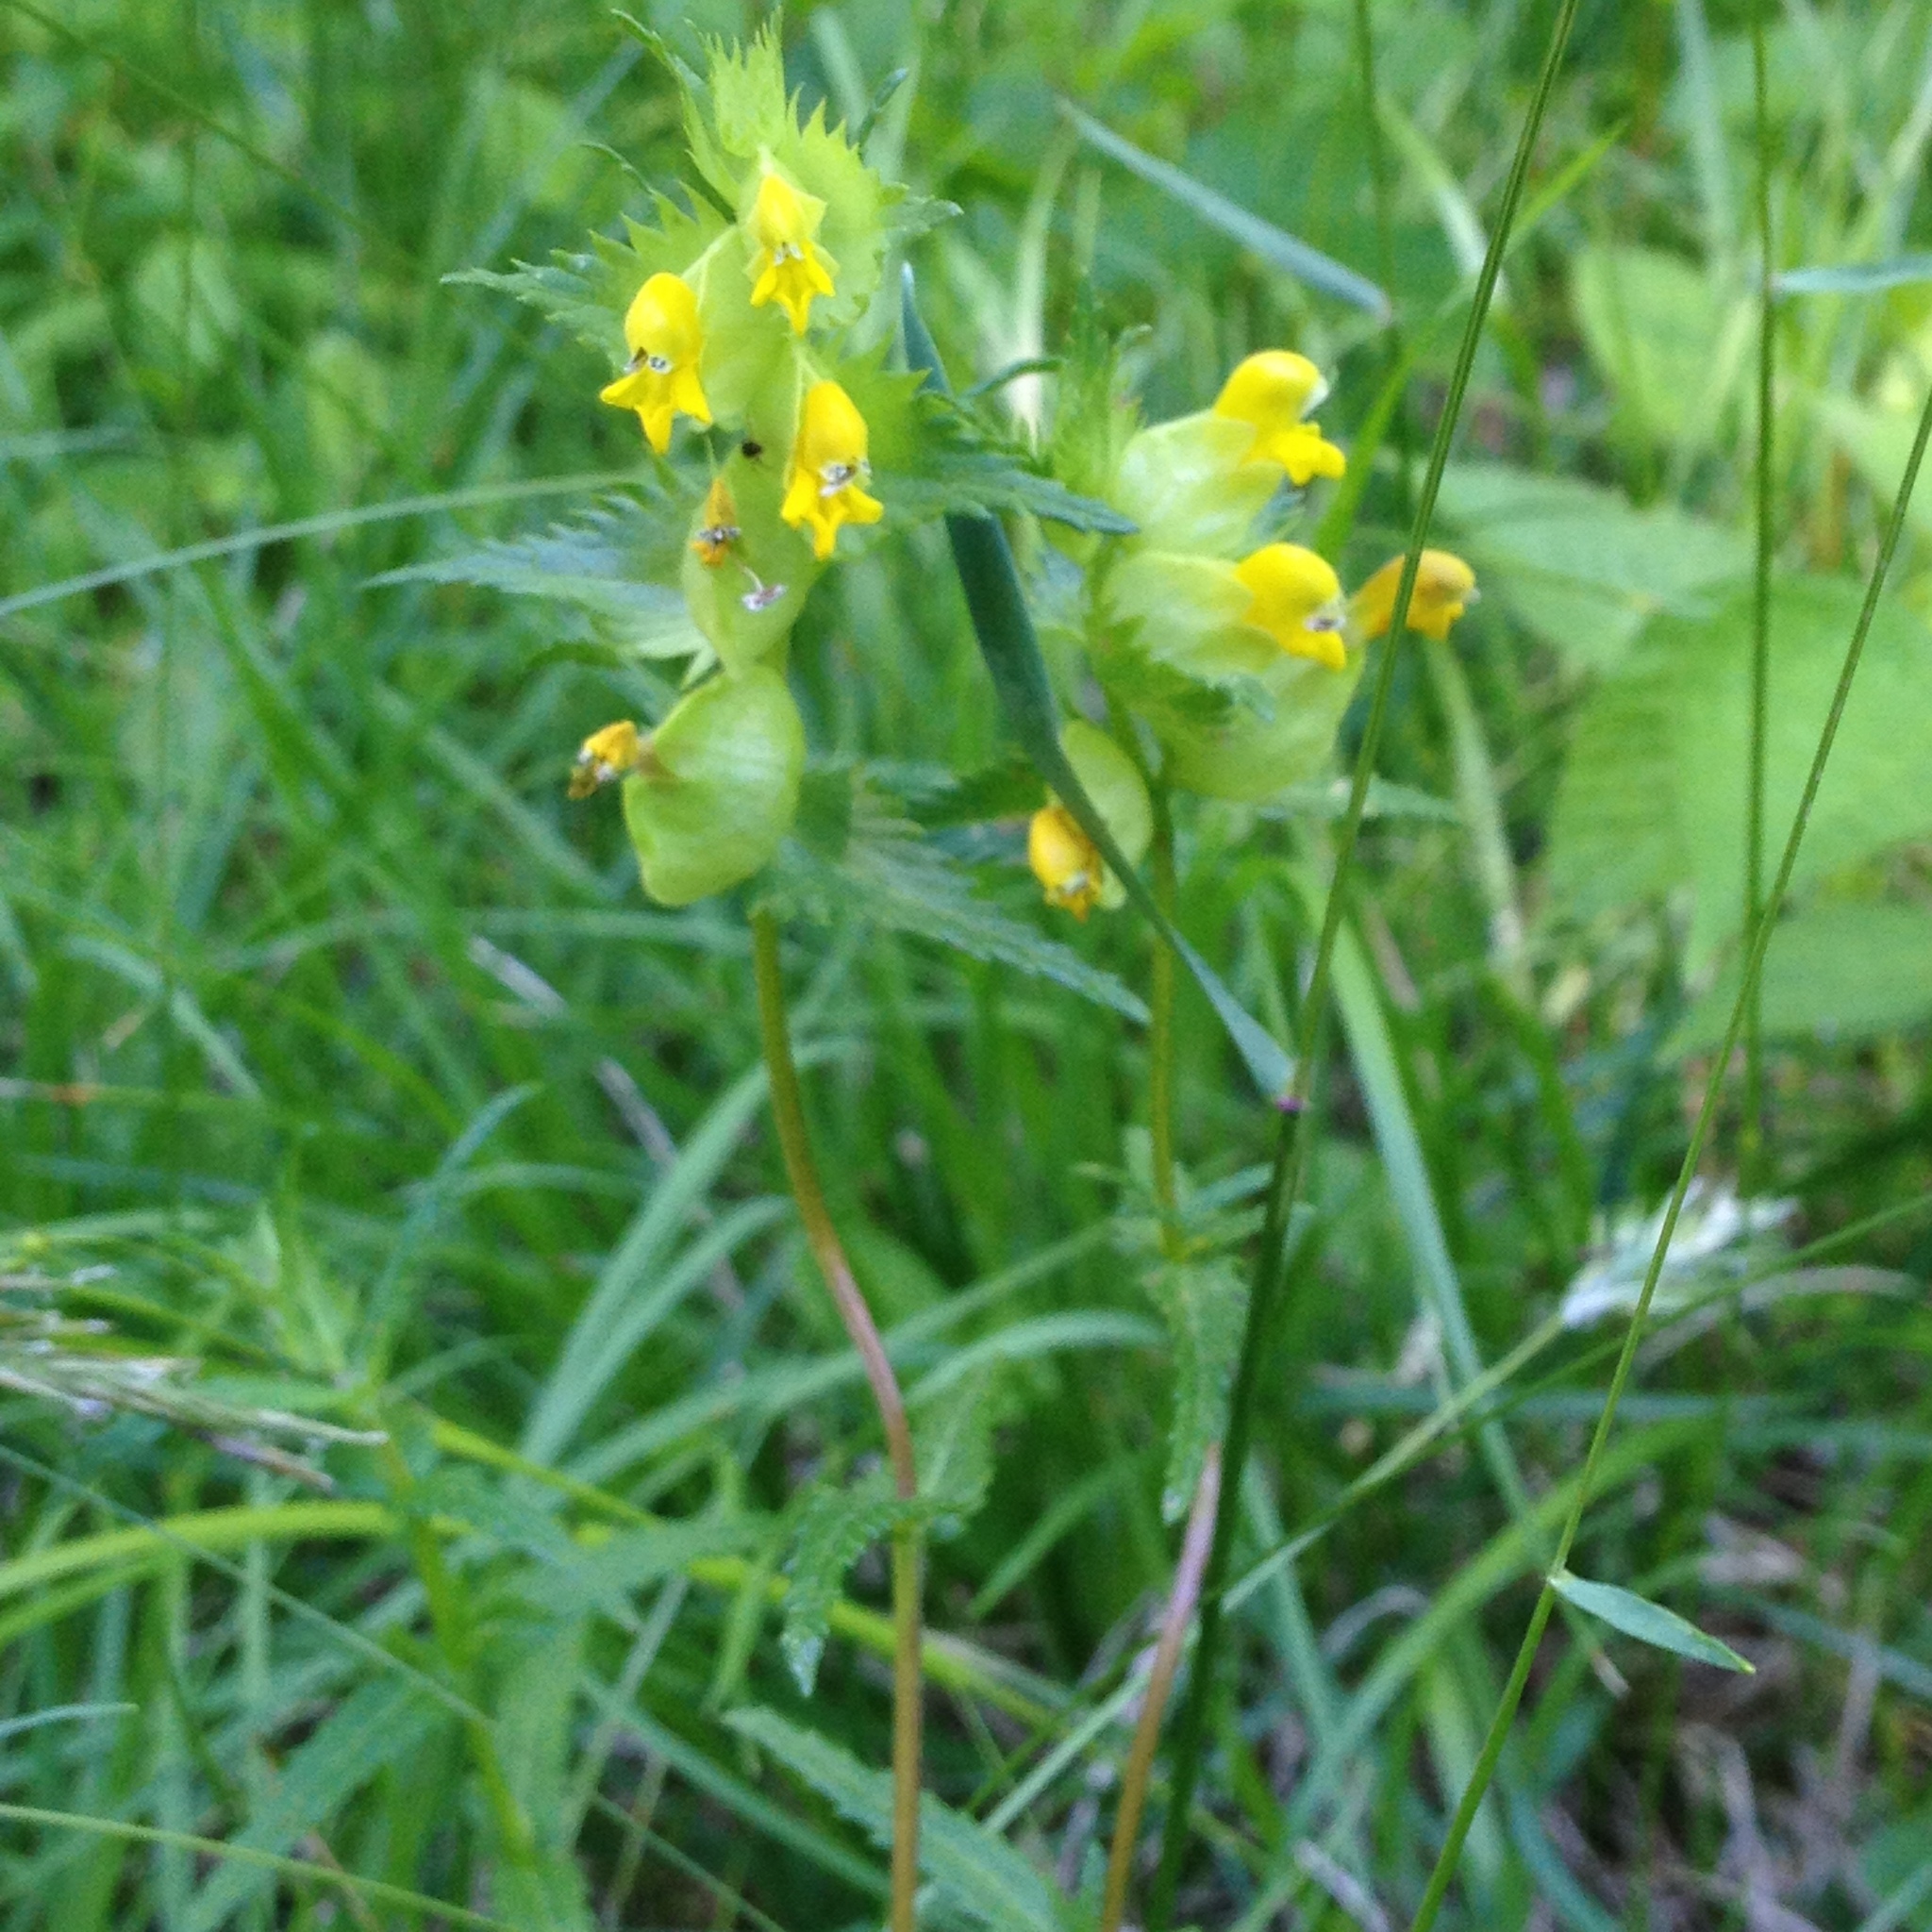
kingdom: Plantae
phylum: Tracheophyta
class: Magnoliopsida
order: Lamiales
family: Orobanchaceae
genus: Rhinanthus
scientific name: Rhinanthus minor
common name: Yellow-rattle
